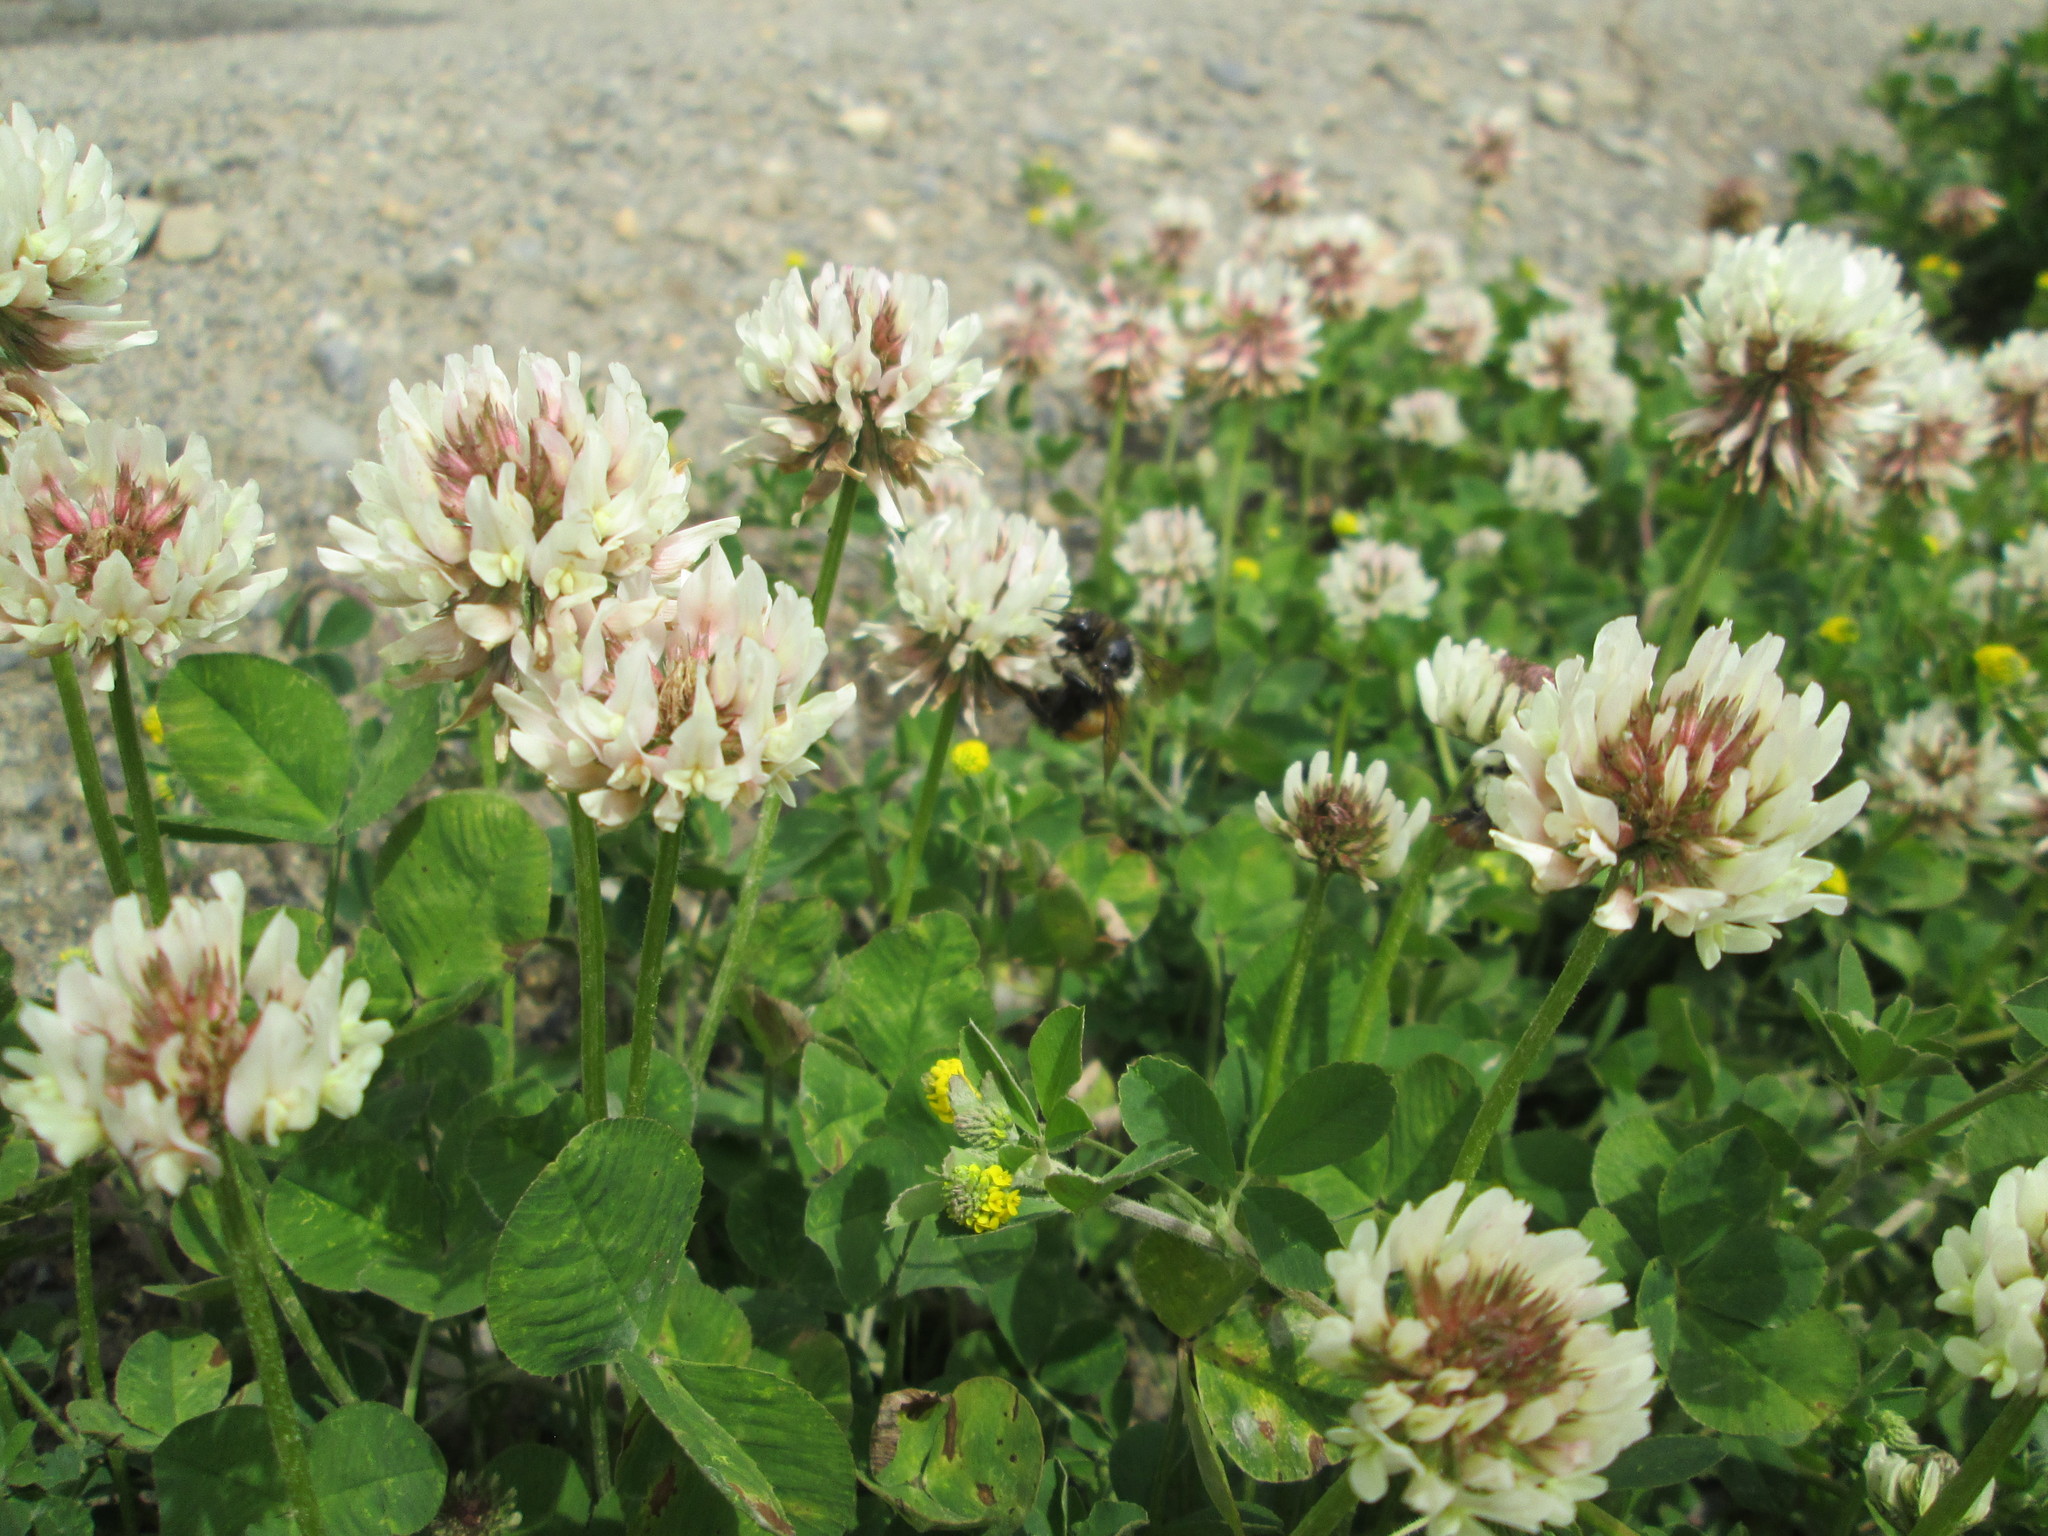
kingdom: Plantae
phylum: Tracheophyta
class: Magnoliopsida
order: Fabales
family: Fabaceae
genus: Medicago
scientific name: Medicago lupulina
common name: Black medick
